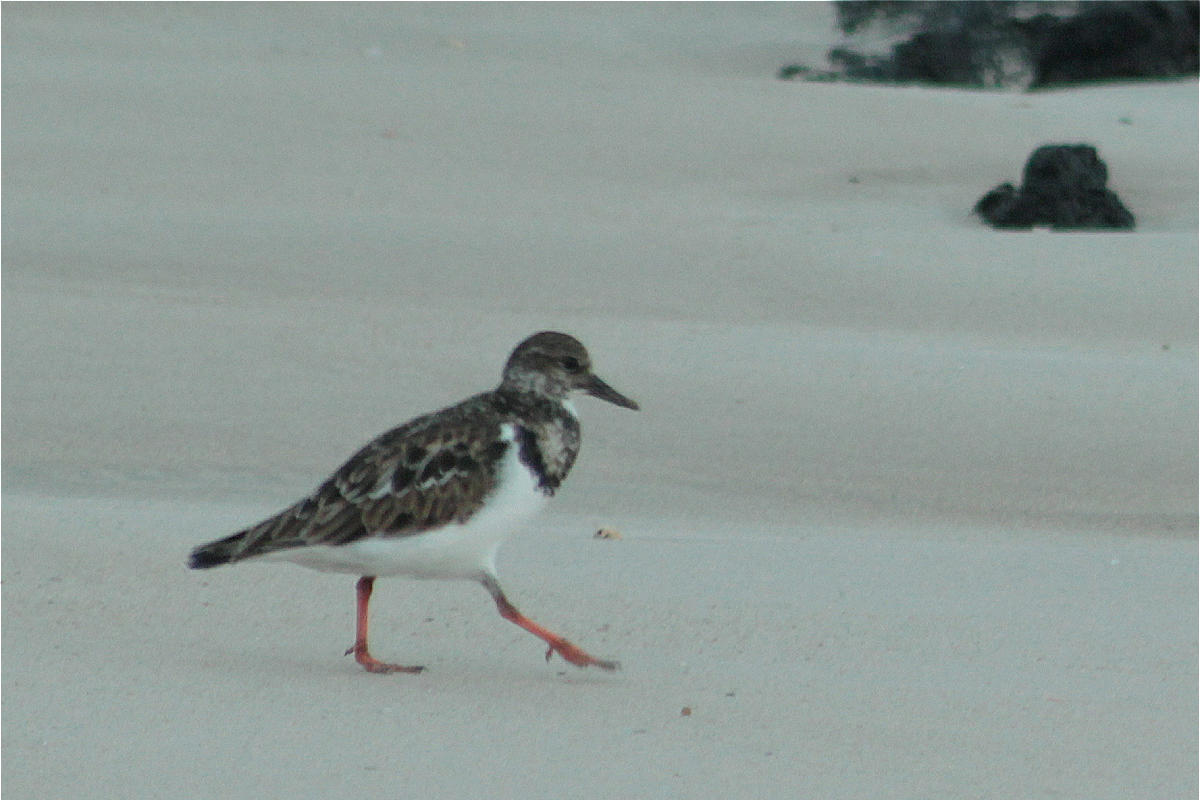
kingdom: Animalia
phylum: Chordata
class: Aves
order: Charadriiformes
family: Scolopacidae
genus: Arenaria
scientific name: Arenaria interpres
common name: Ruddy turnstone
